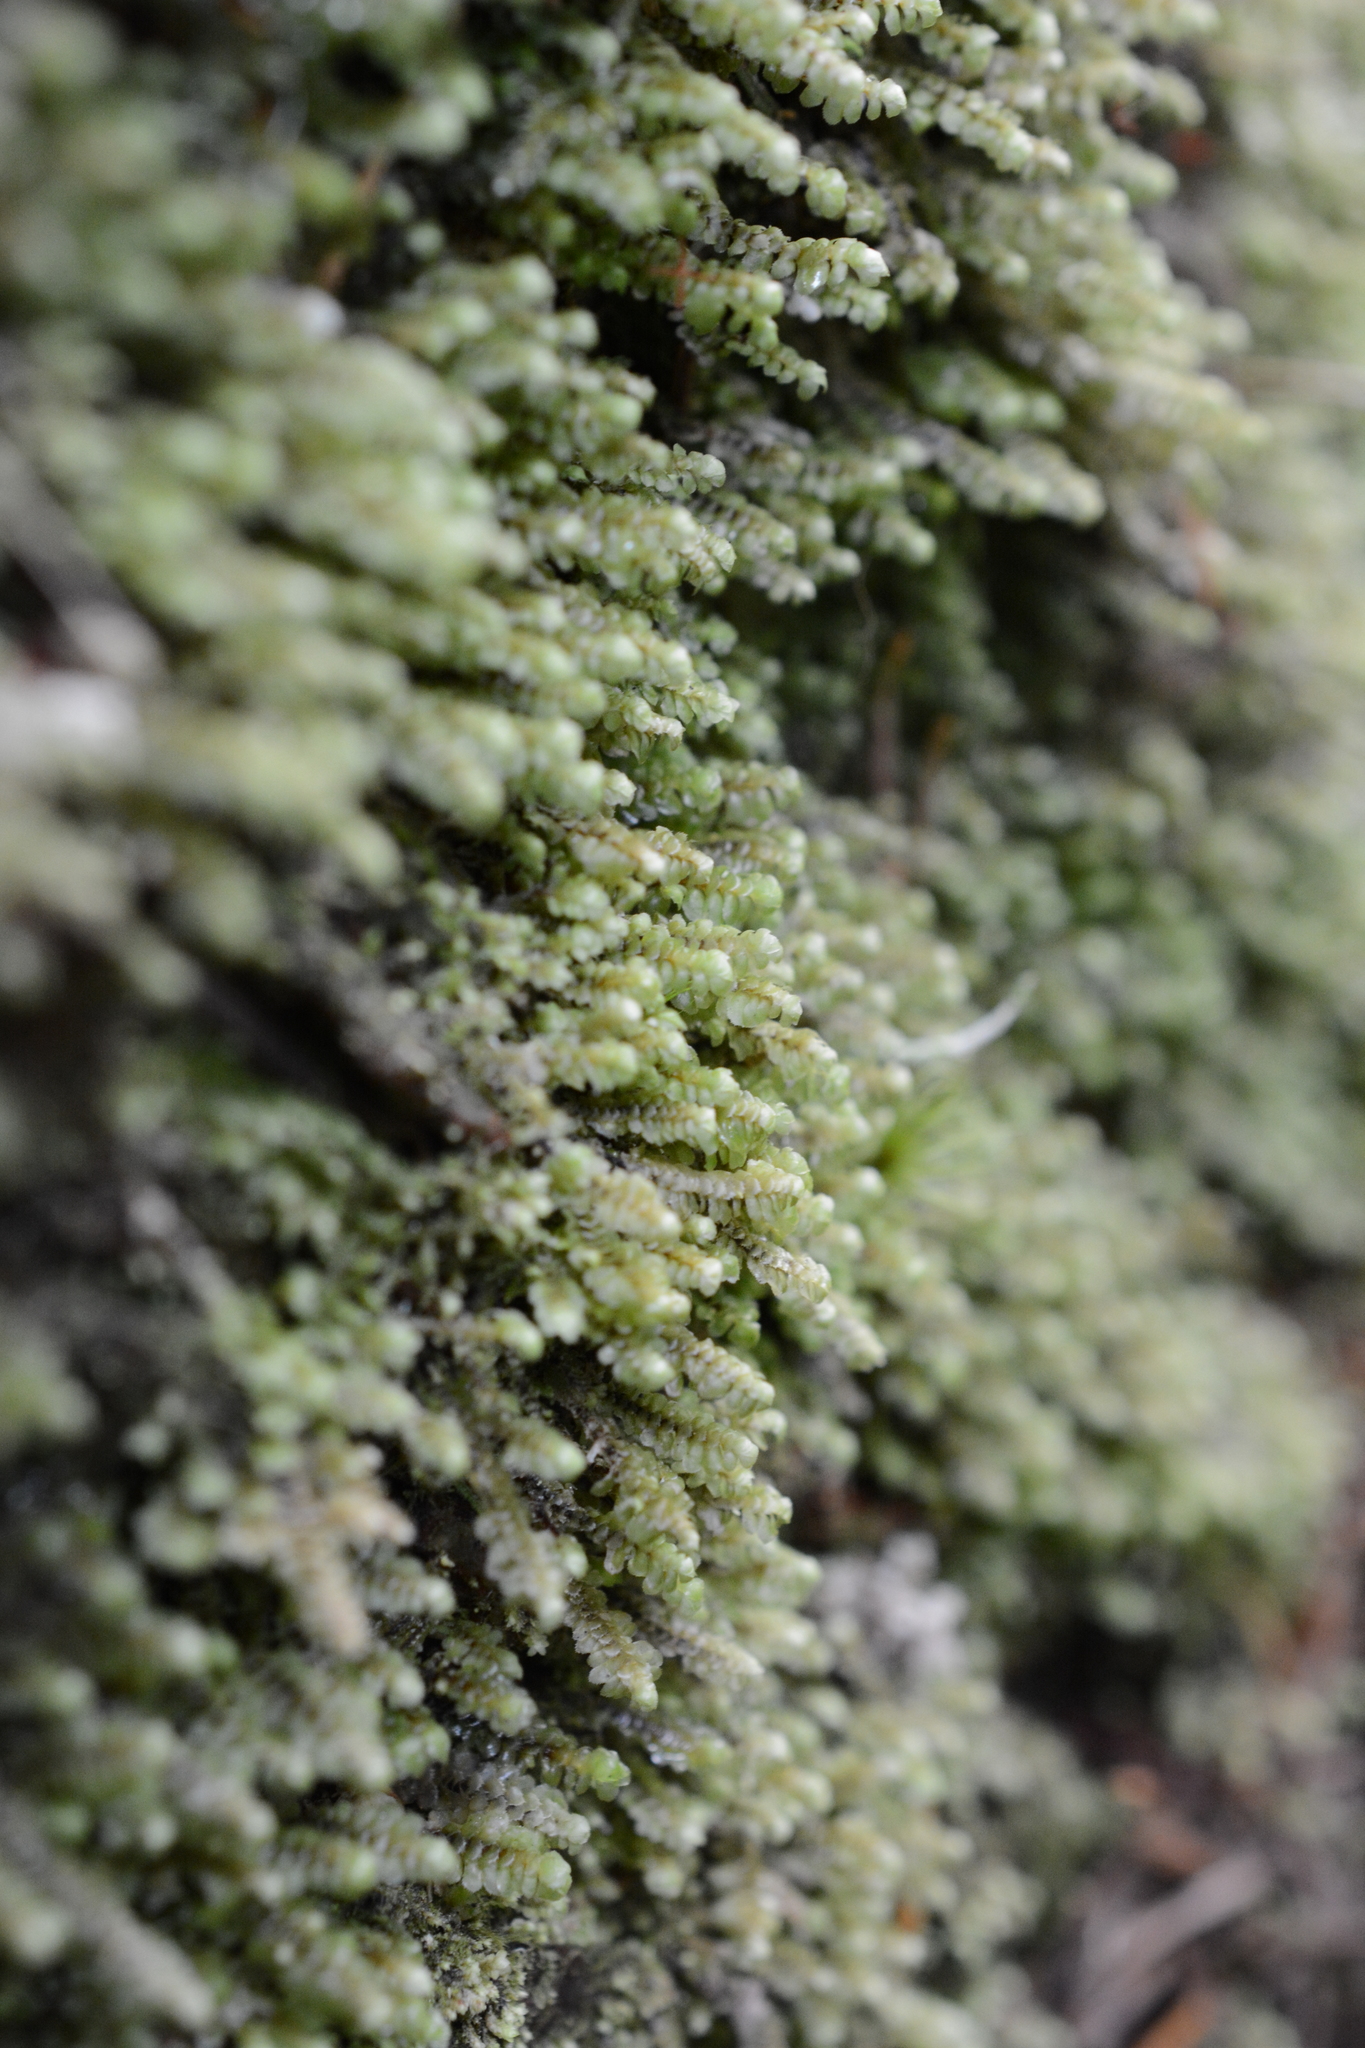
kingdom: Plantae
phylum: Marchantiophyta
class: Jungermanniopsida
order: Jungermanniales
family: Scapaniaceae
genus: Scapania
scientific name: Scapania bolanderi
